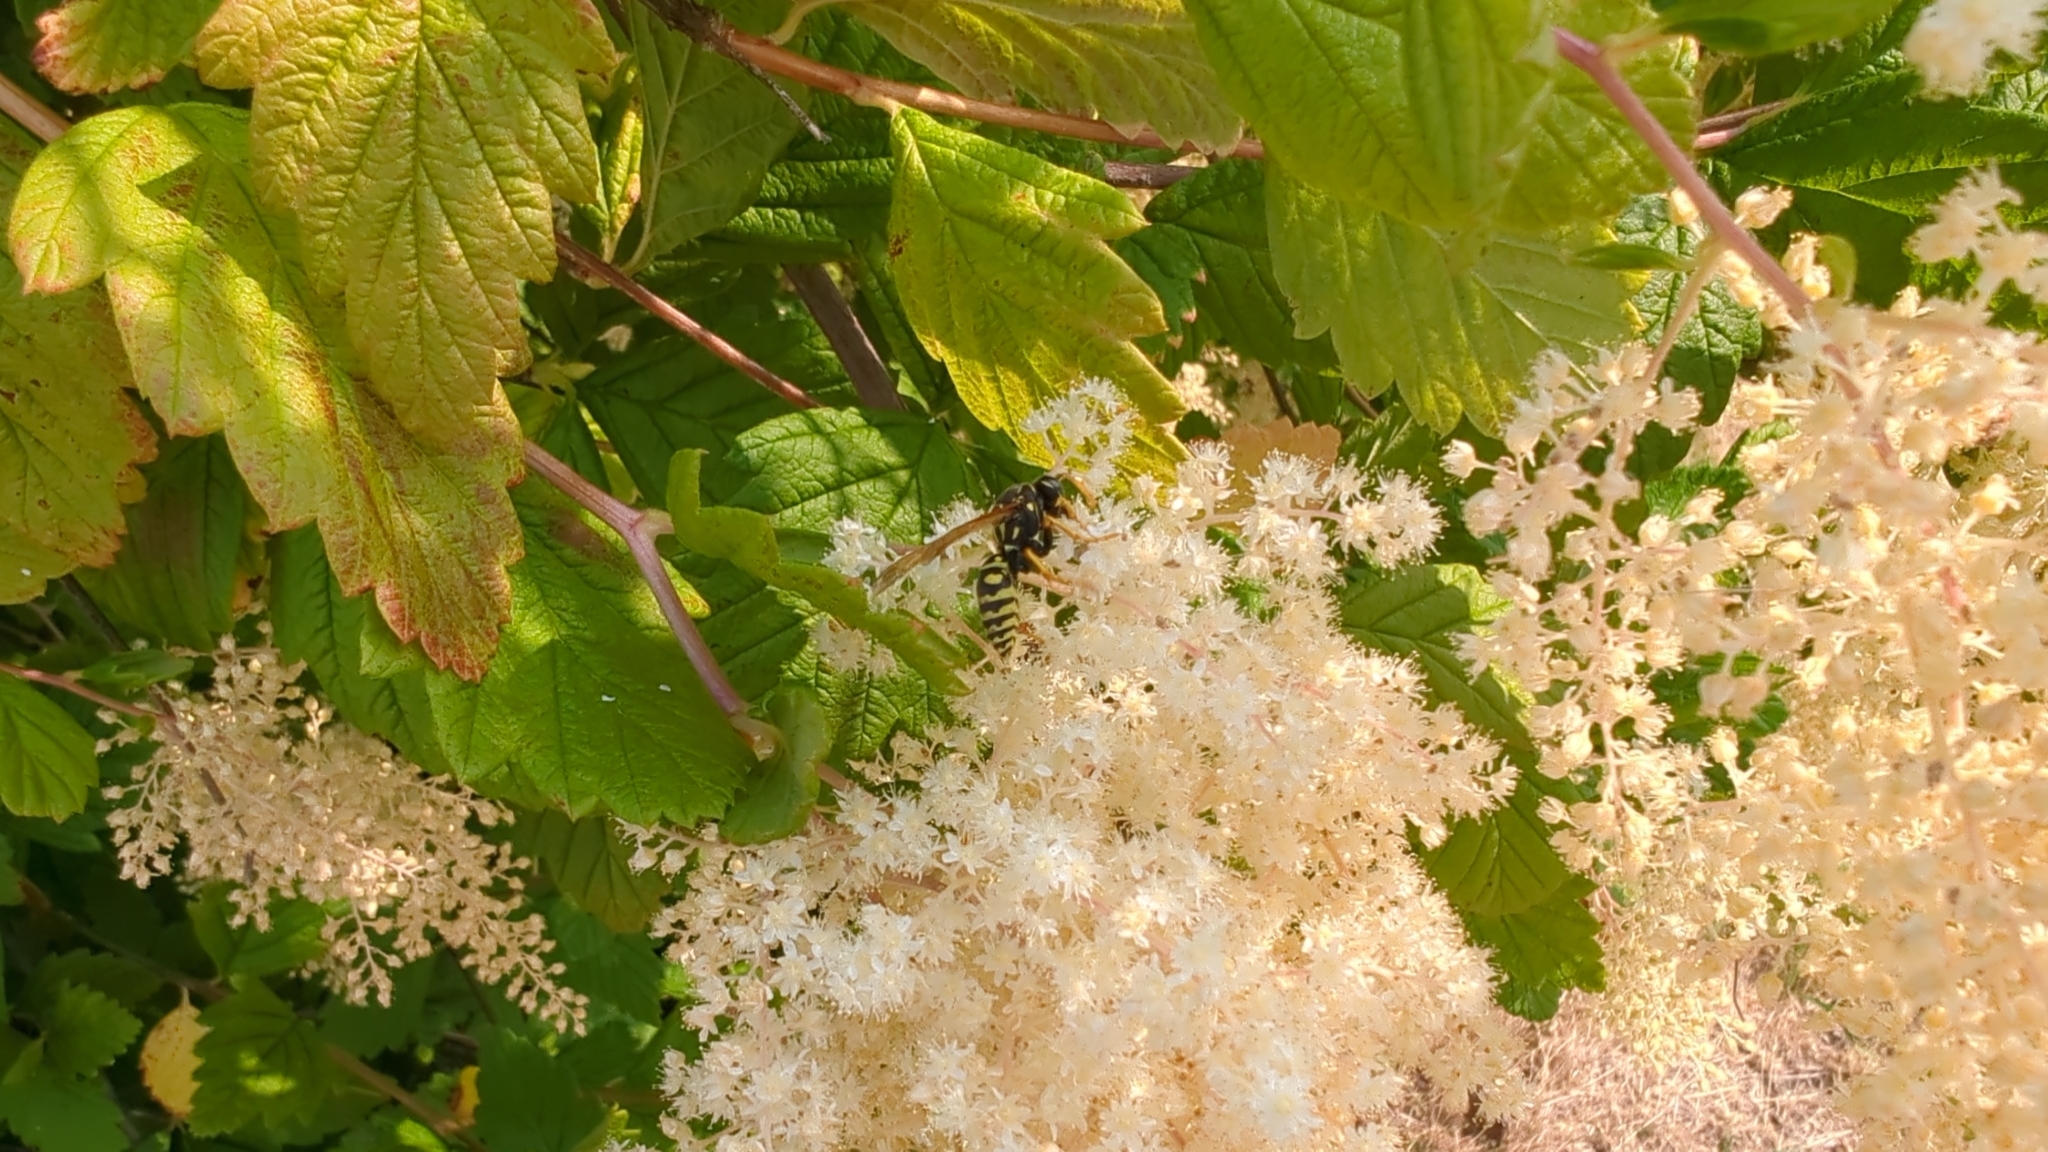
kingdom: Animalia
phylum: Arthropoda
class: Insecta
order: Hymenoptera
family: Eumenidae
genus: Polistes
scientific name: Polistes dominula
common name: Paper wasp
